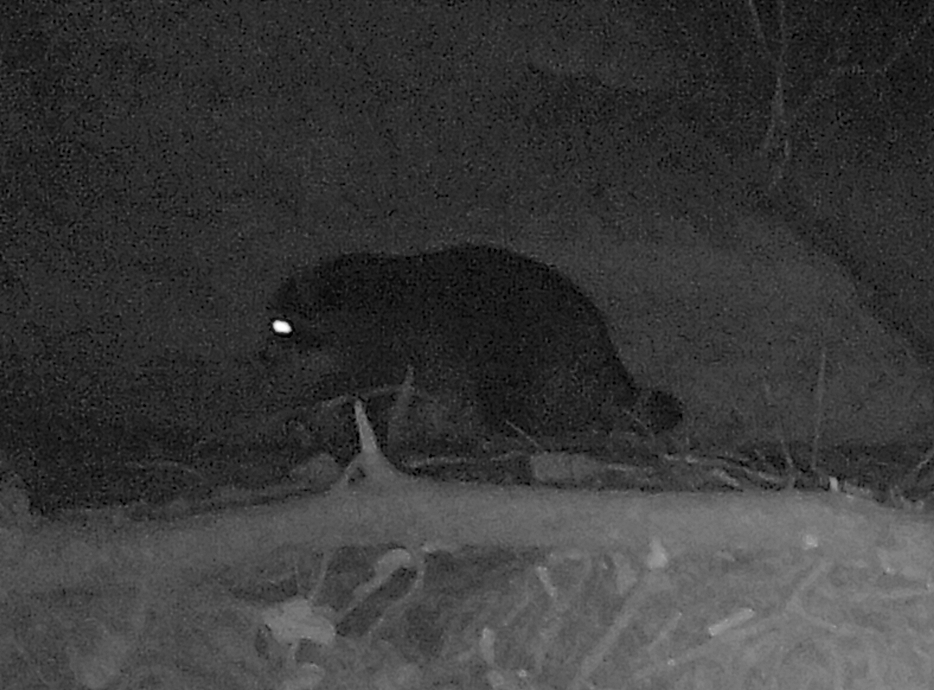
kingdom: Animalia
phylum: Chordata
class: Mammalia
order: Carnivora
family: Procyonidae
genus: Procyon
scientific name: Procyon lotor
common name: Raccoon
